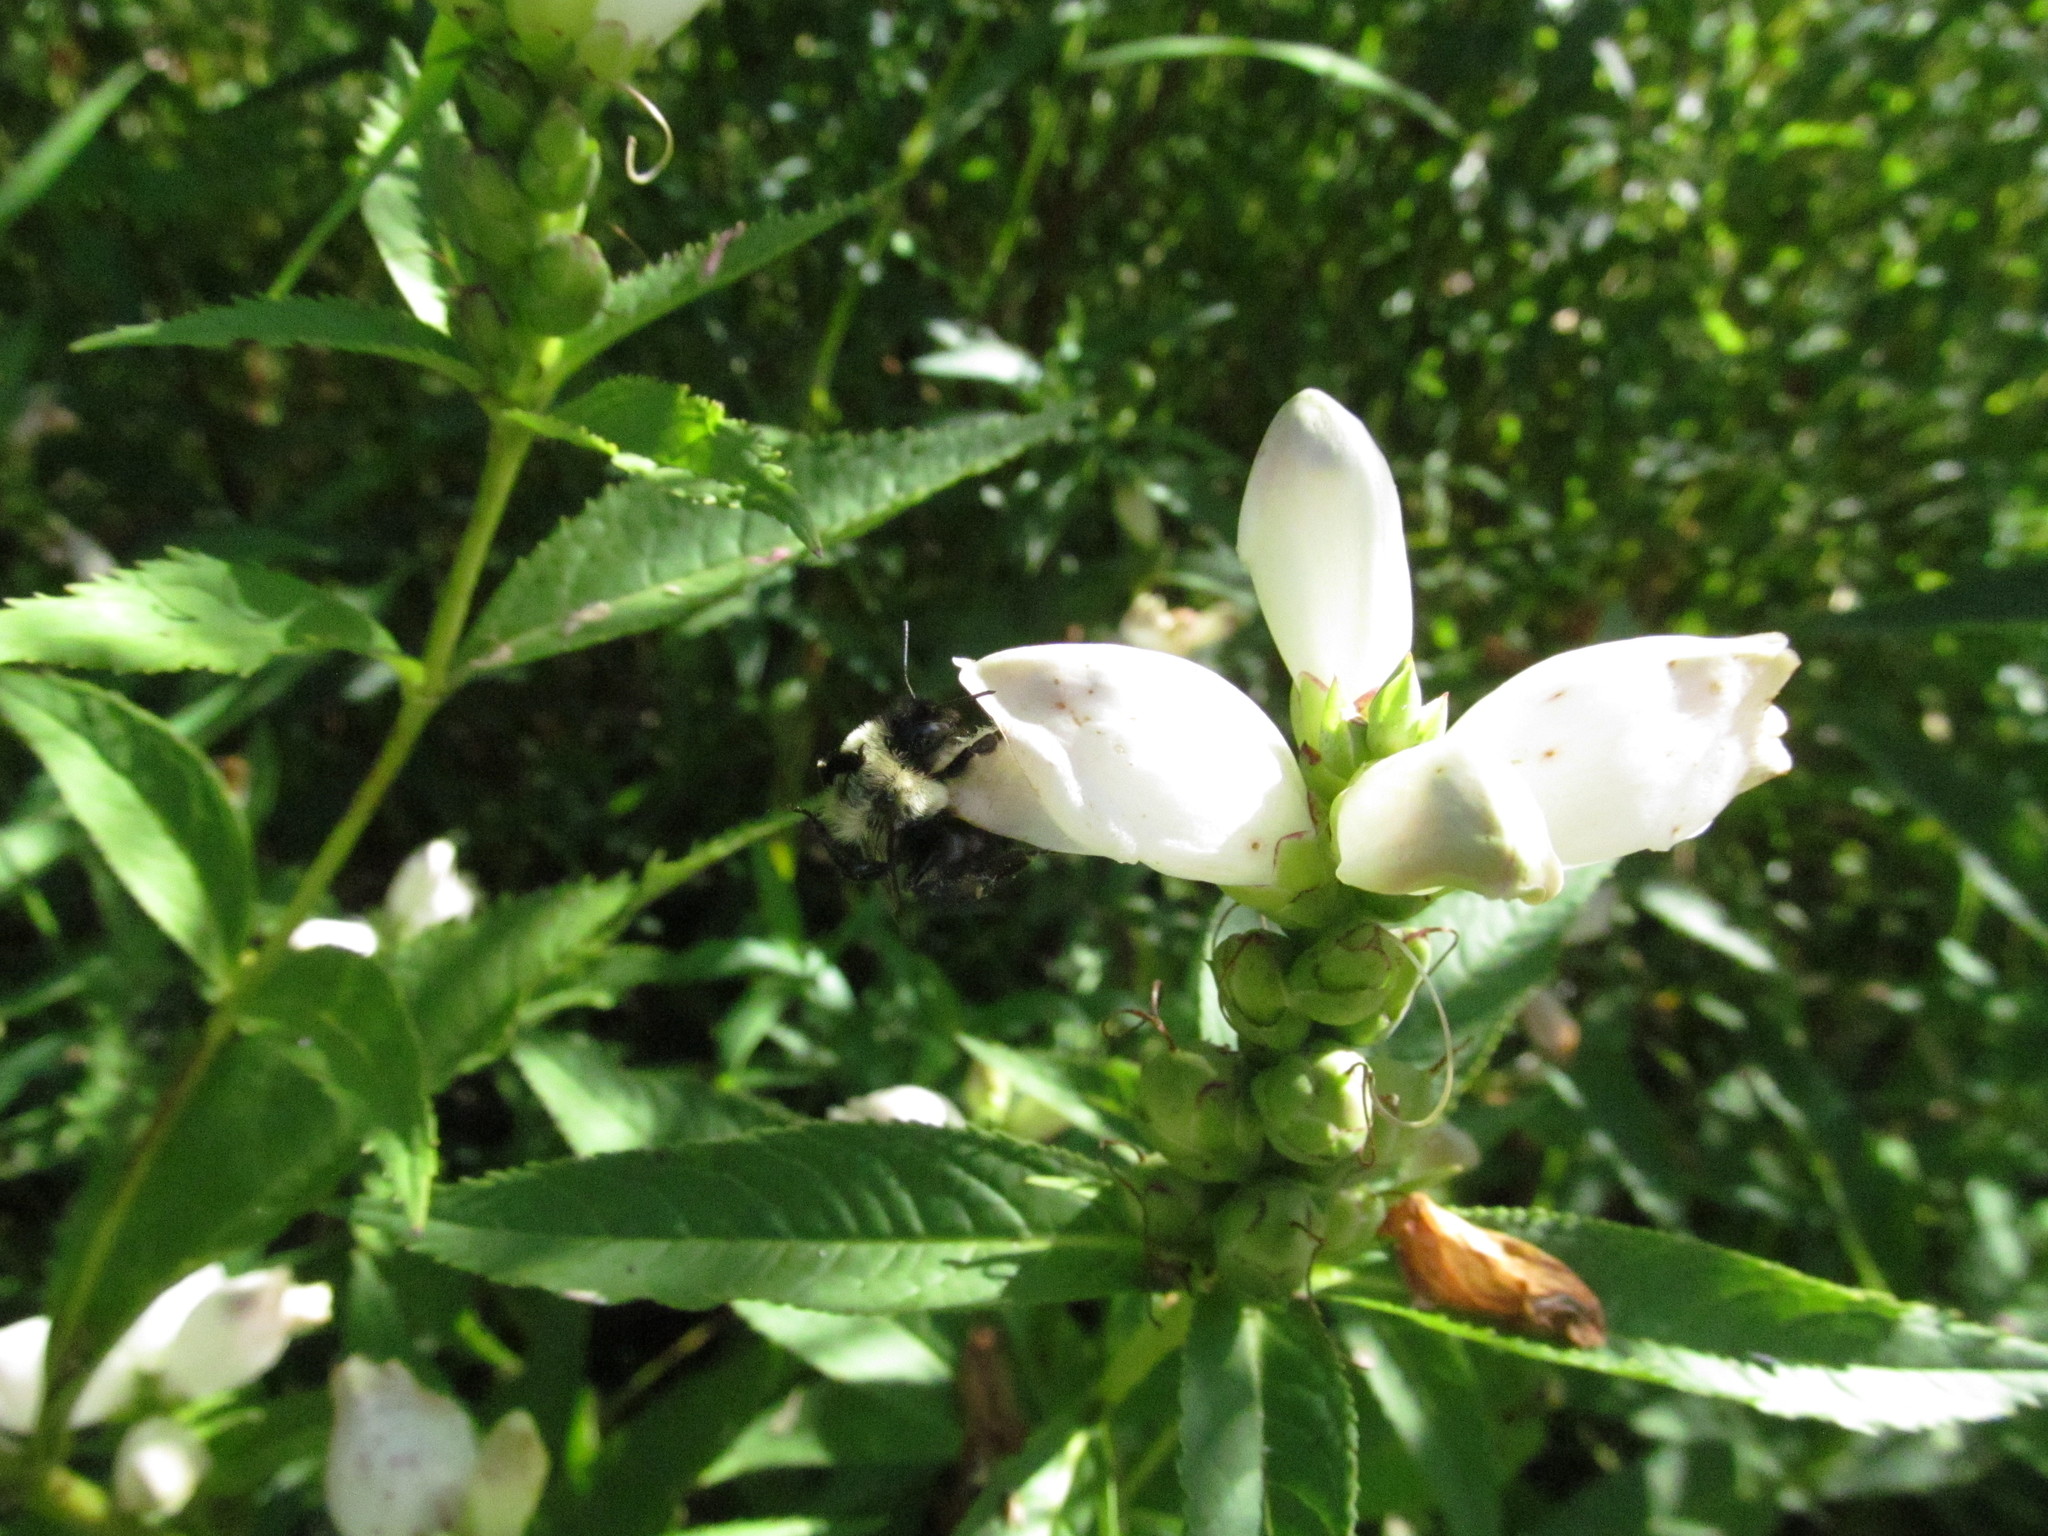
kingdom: Plantae
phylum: Tracheophyta
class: Magnoliopsida
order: Lamiales
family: Plantaginaceae
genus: Chelone
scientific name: Chelone glabra
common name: Snakehead
